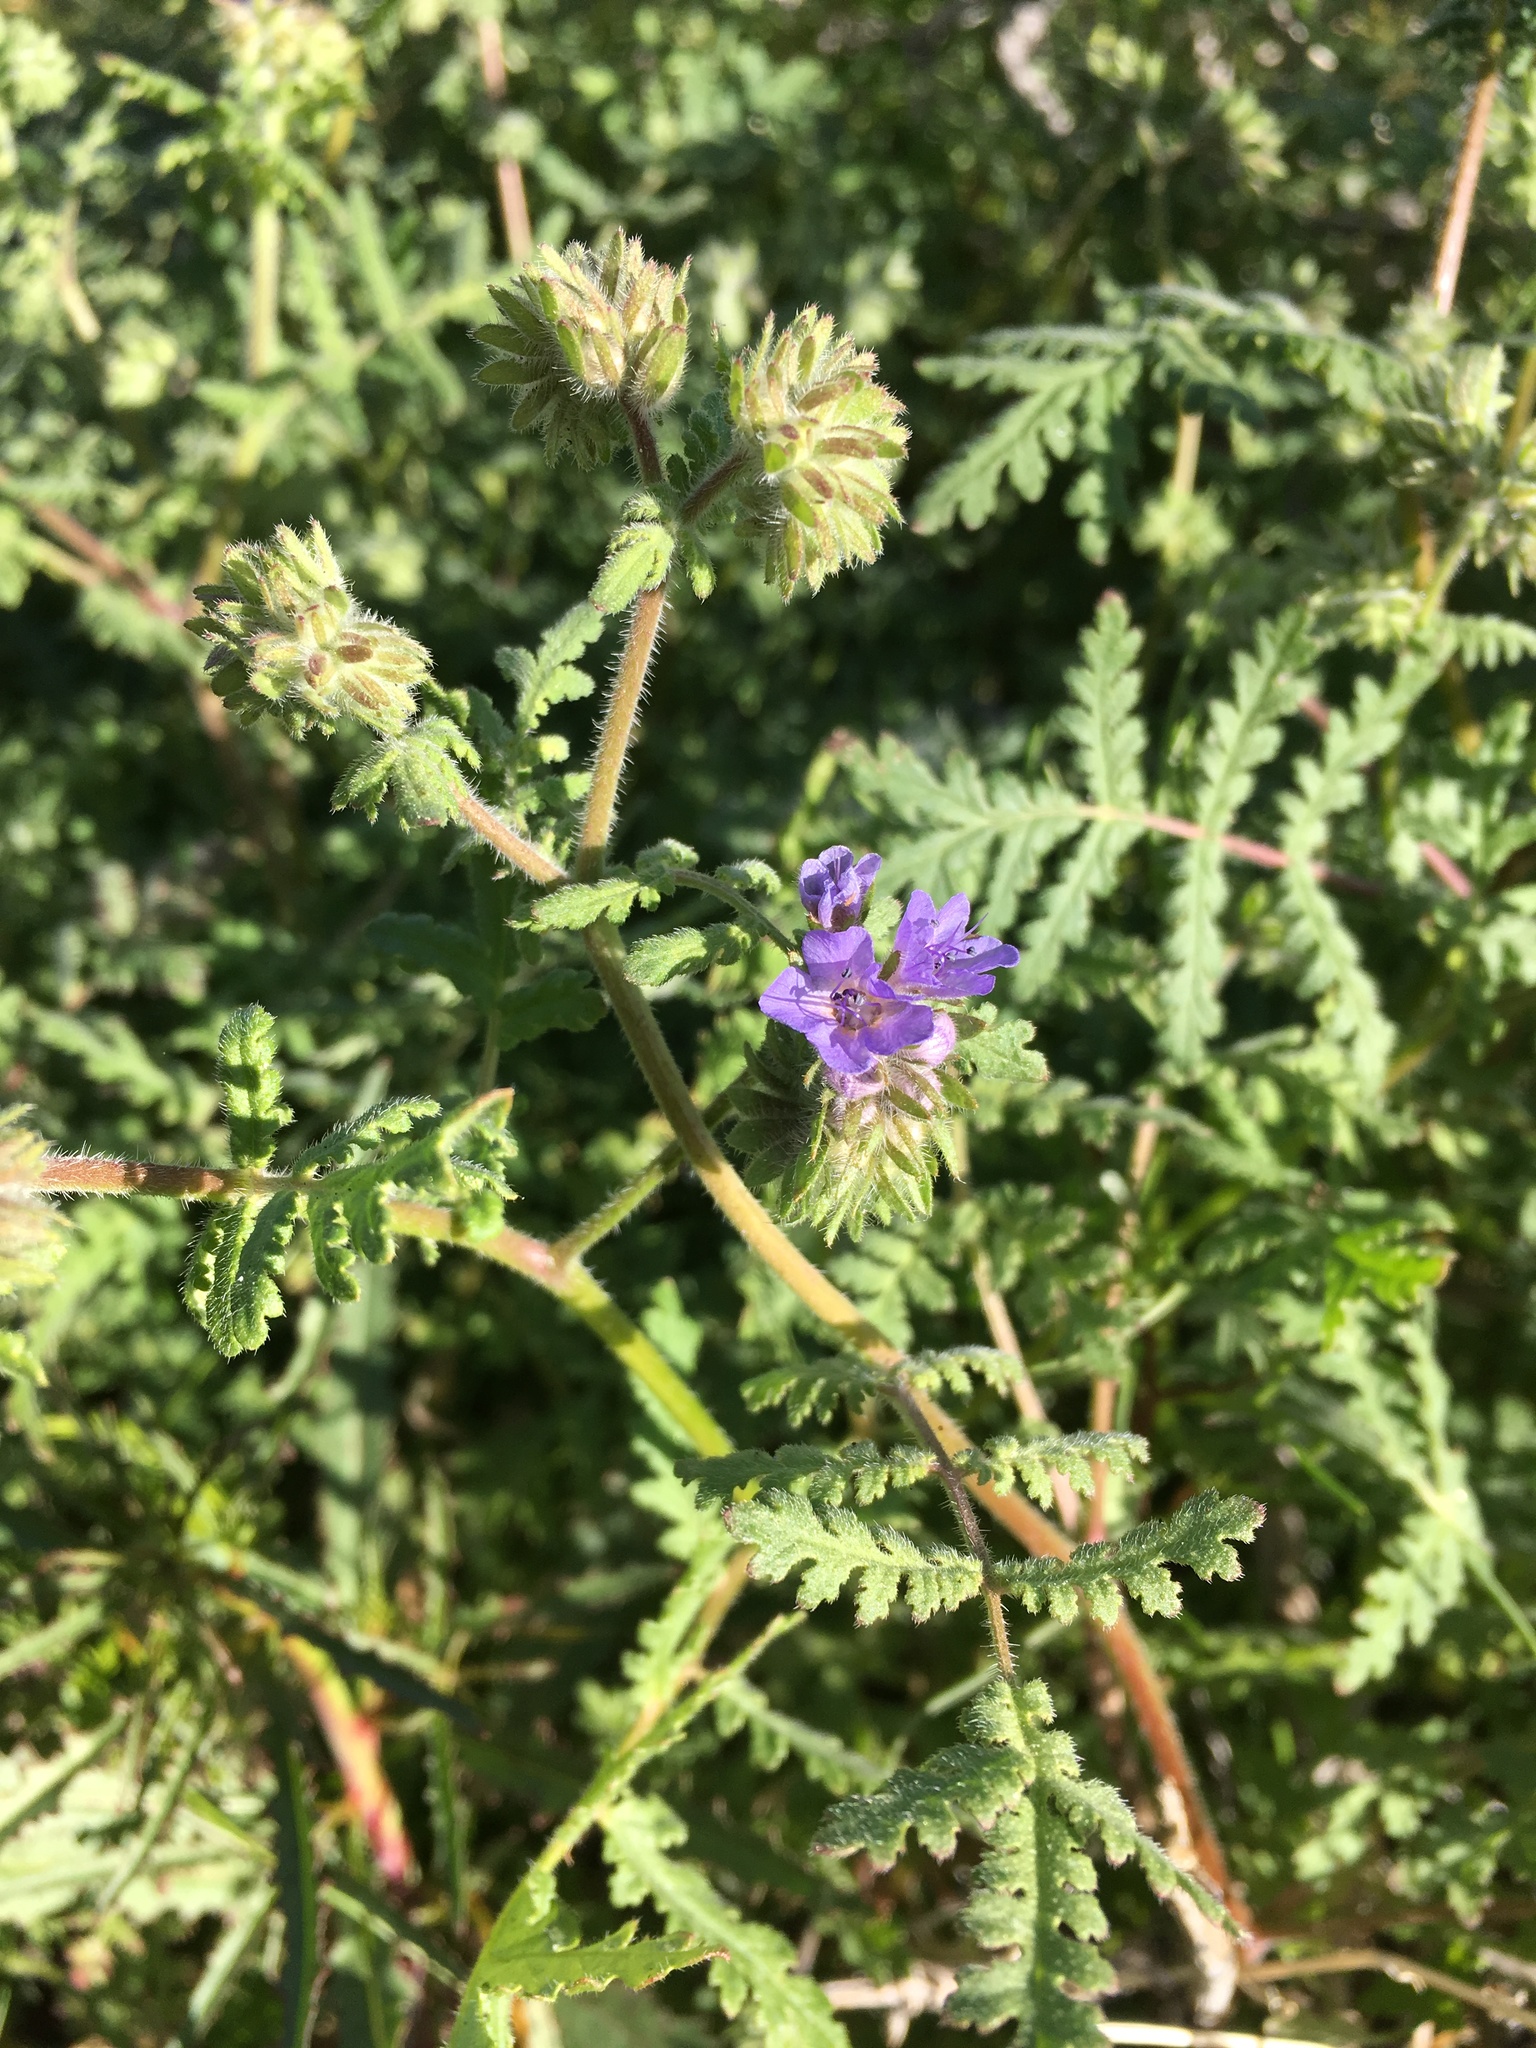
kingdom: Plantae
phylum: Tracheophyta
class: Magnoliopsida
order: Boraginales
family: Hydrophyllaceae
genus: Phacelia
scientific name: Phacelia distans
